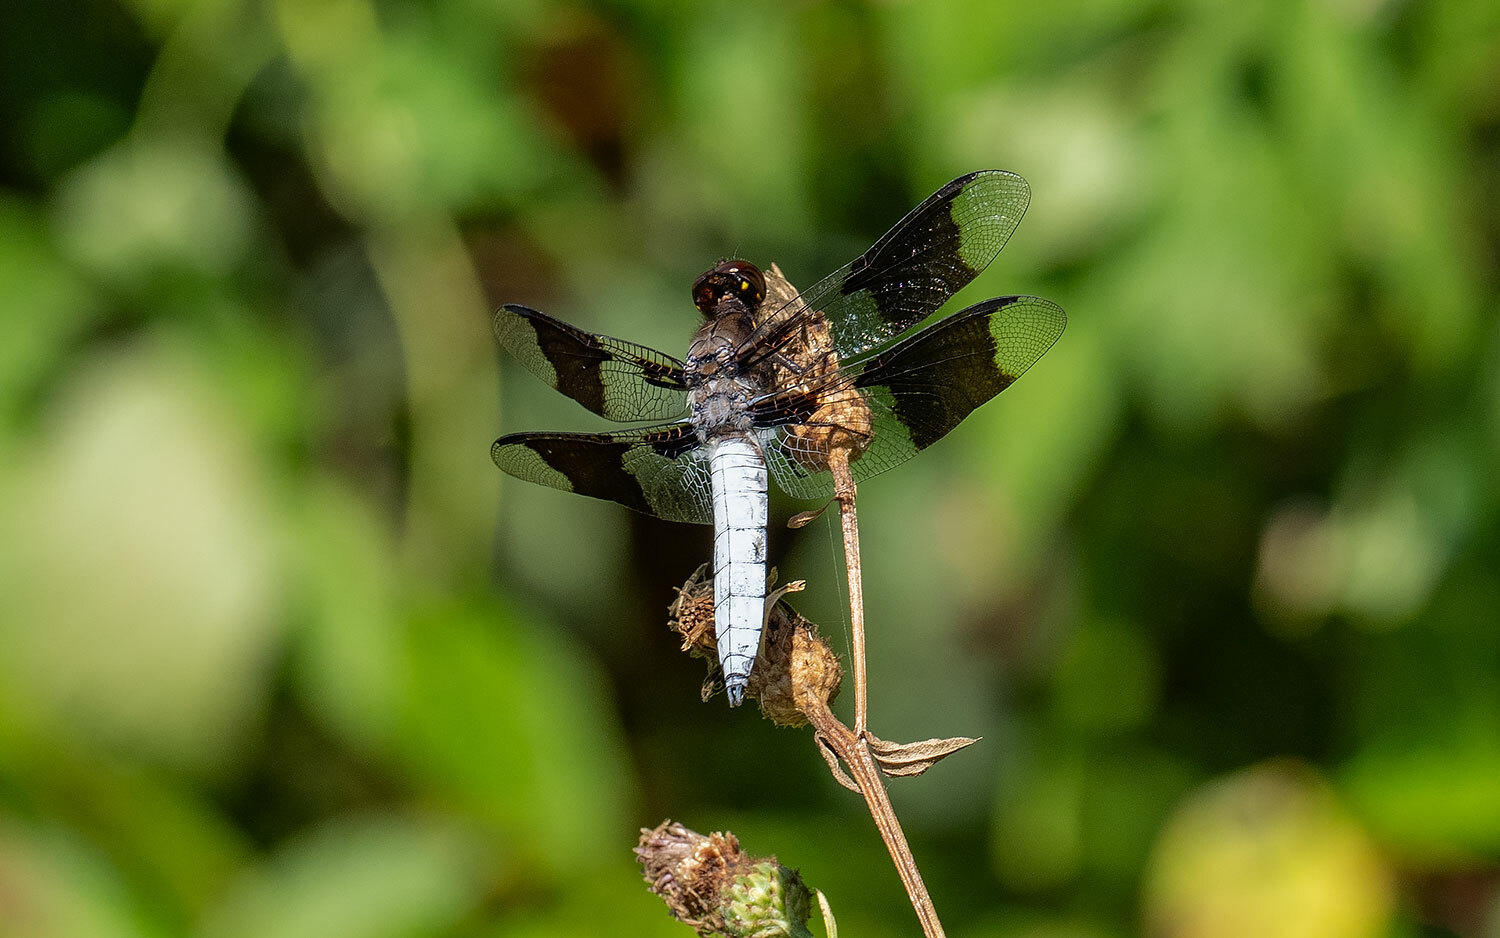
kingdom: Animalia
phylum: Arthropoda
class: Insecta
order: Odonata
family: Libellulidae
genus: Plathemis
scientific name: Plathemis lydia
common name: Common whitetail
